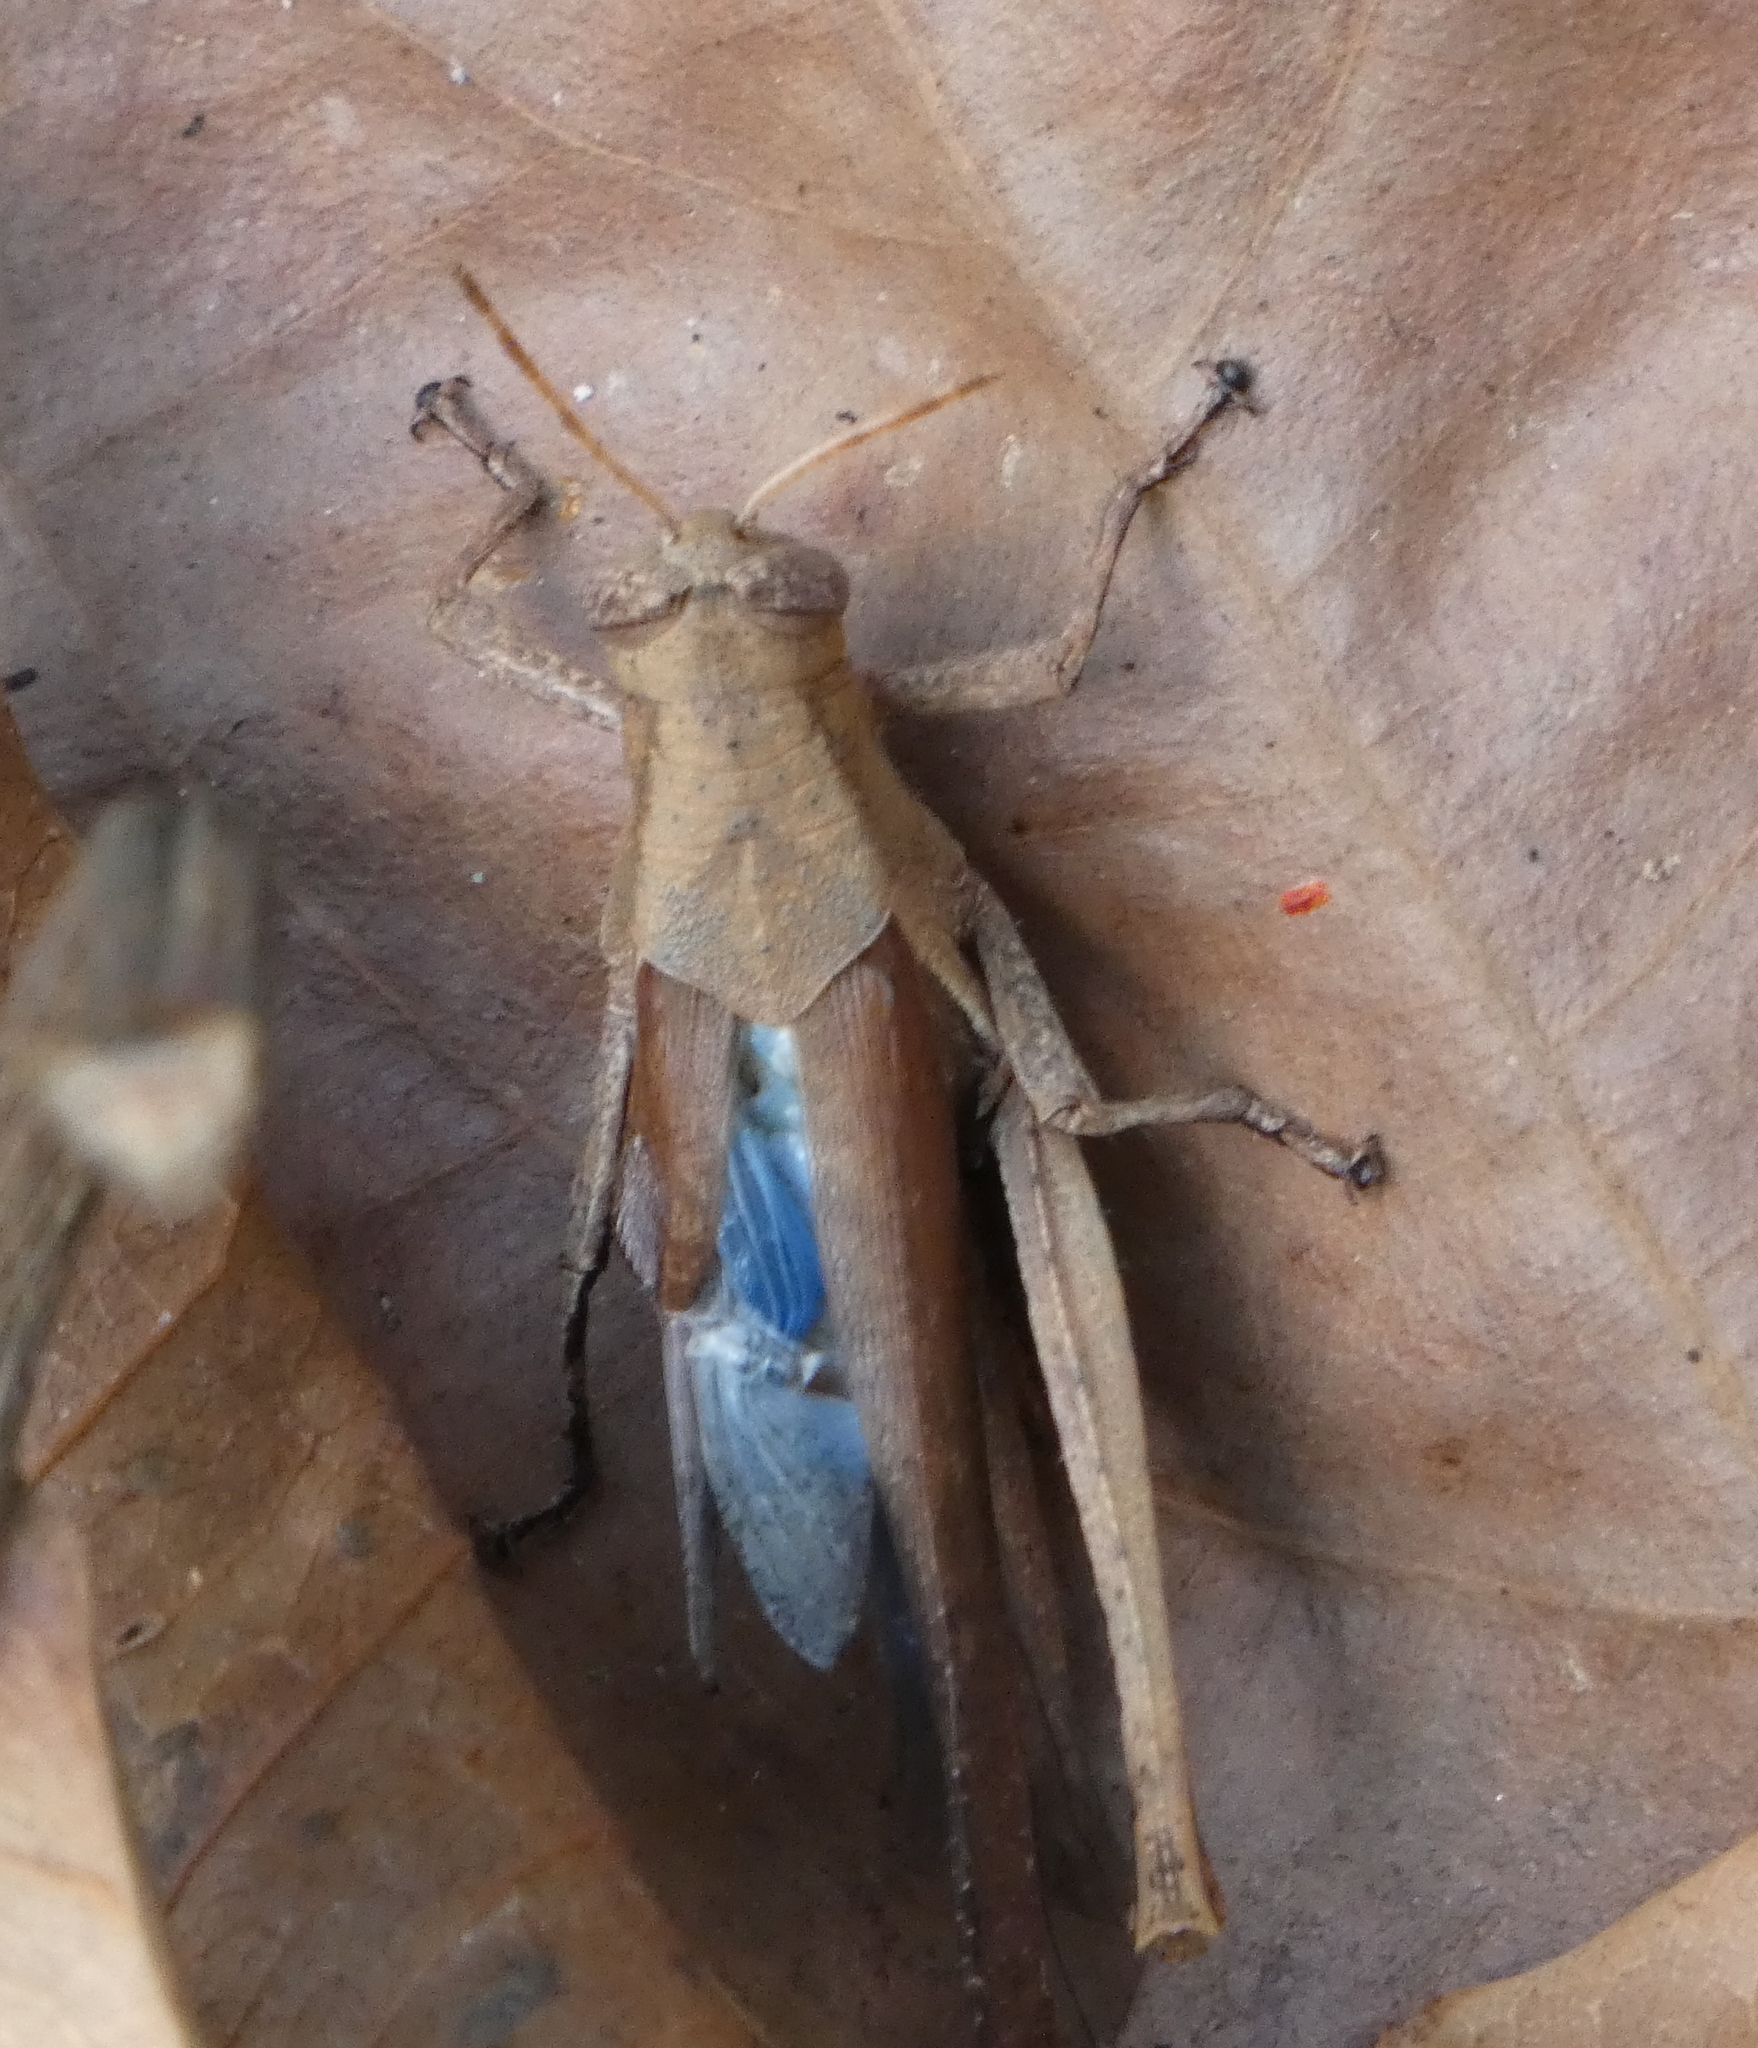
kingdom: Animalia
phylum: Arthropoda
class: Insecta
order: Orthoptera
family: Acrididae
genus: Abracris
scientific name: Abracris flavolineata
